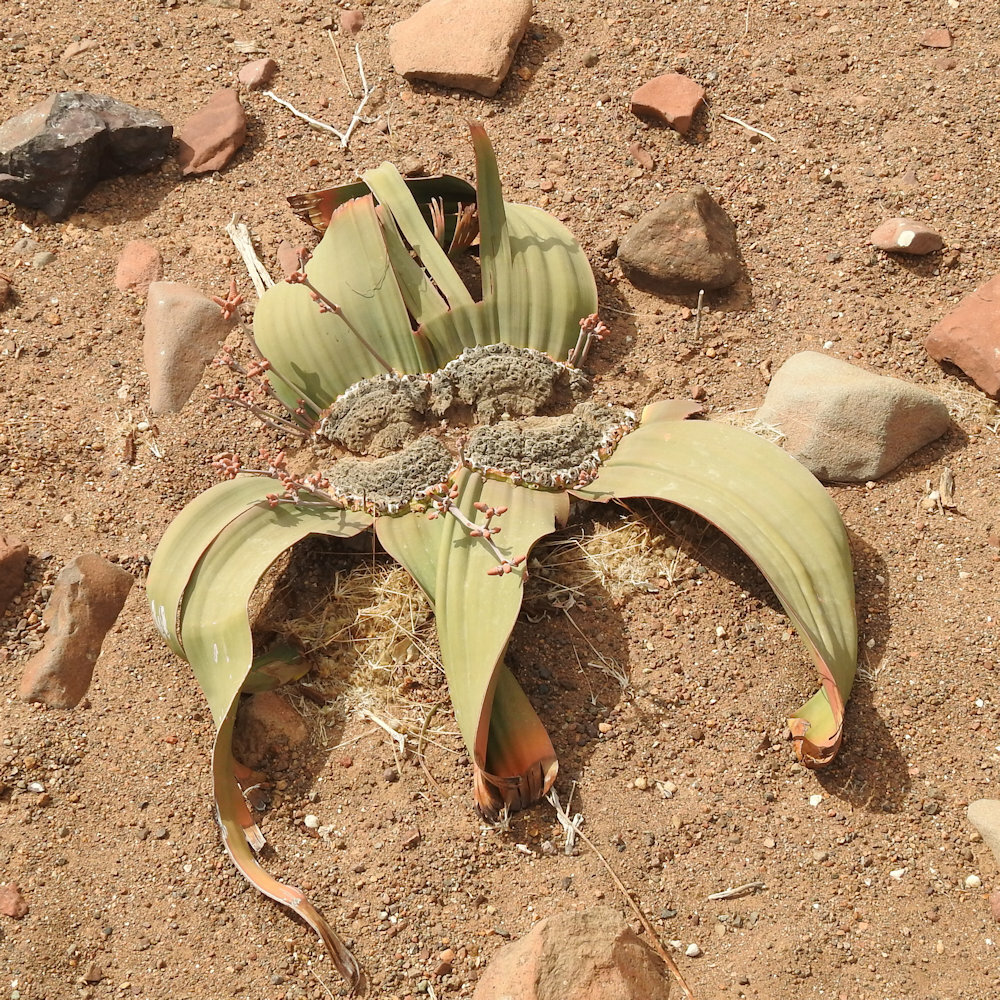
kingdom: Plantae
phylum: Tracheophyta
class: Gnetopsida
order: Welwitschiales
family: Welwitschiaceae
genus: Welwitschia
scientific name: Welwitschia mirabilis
